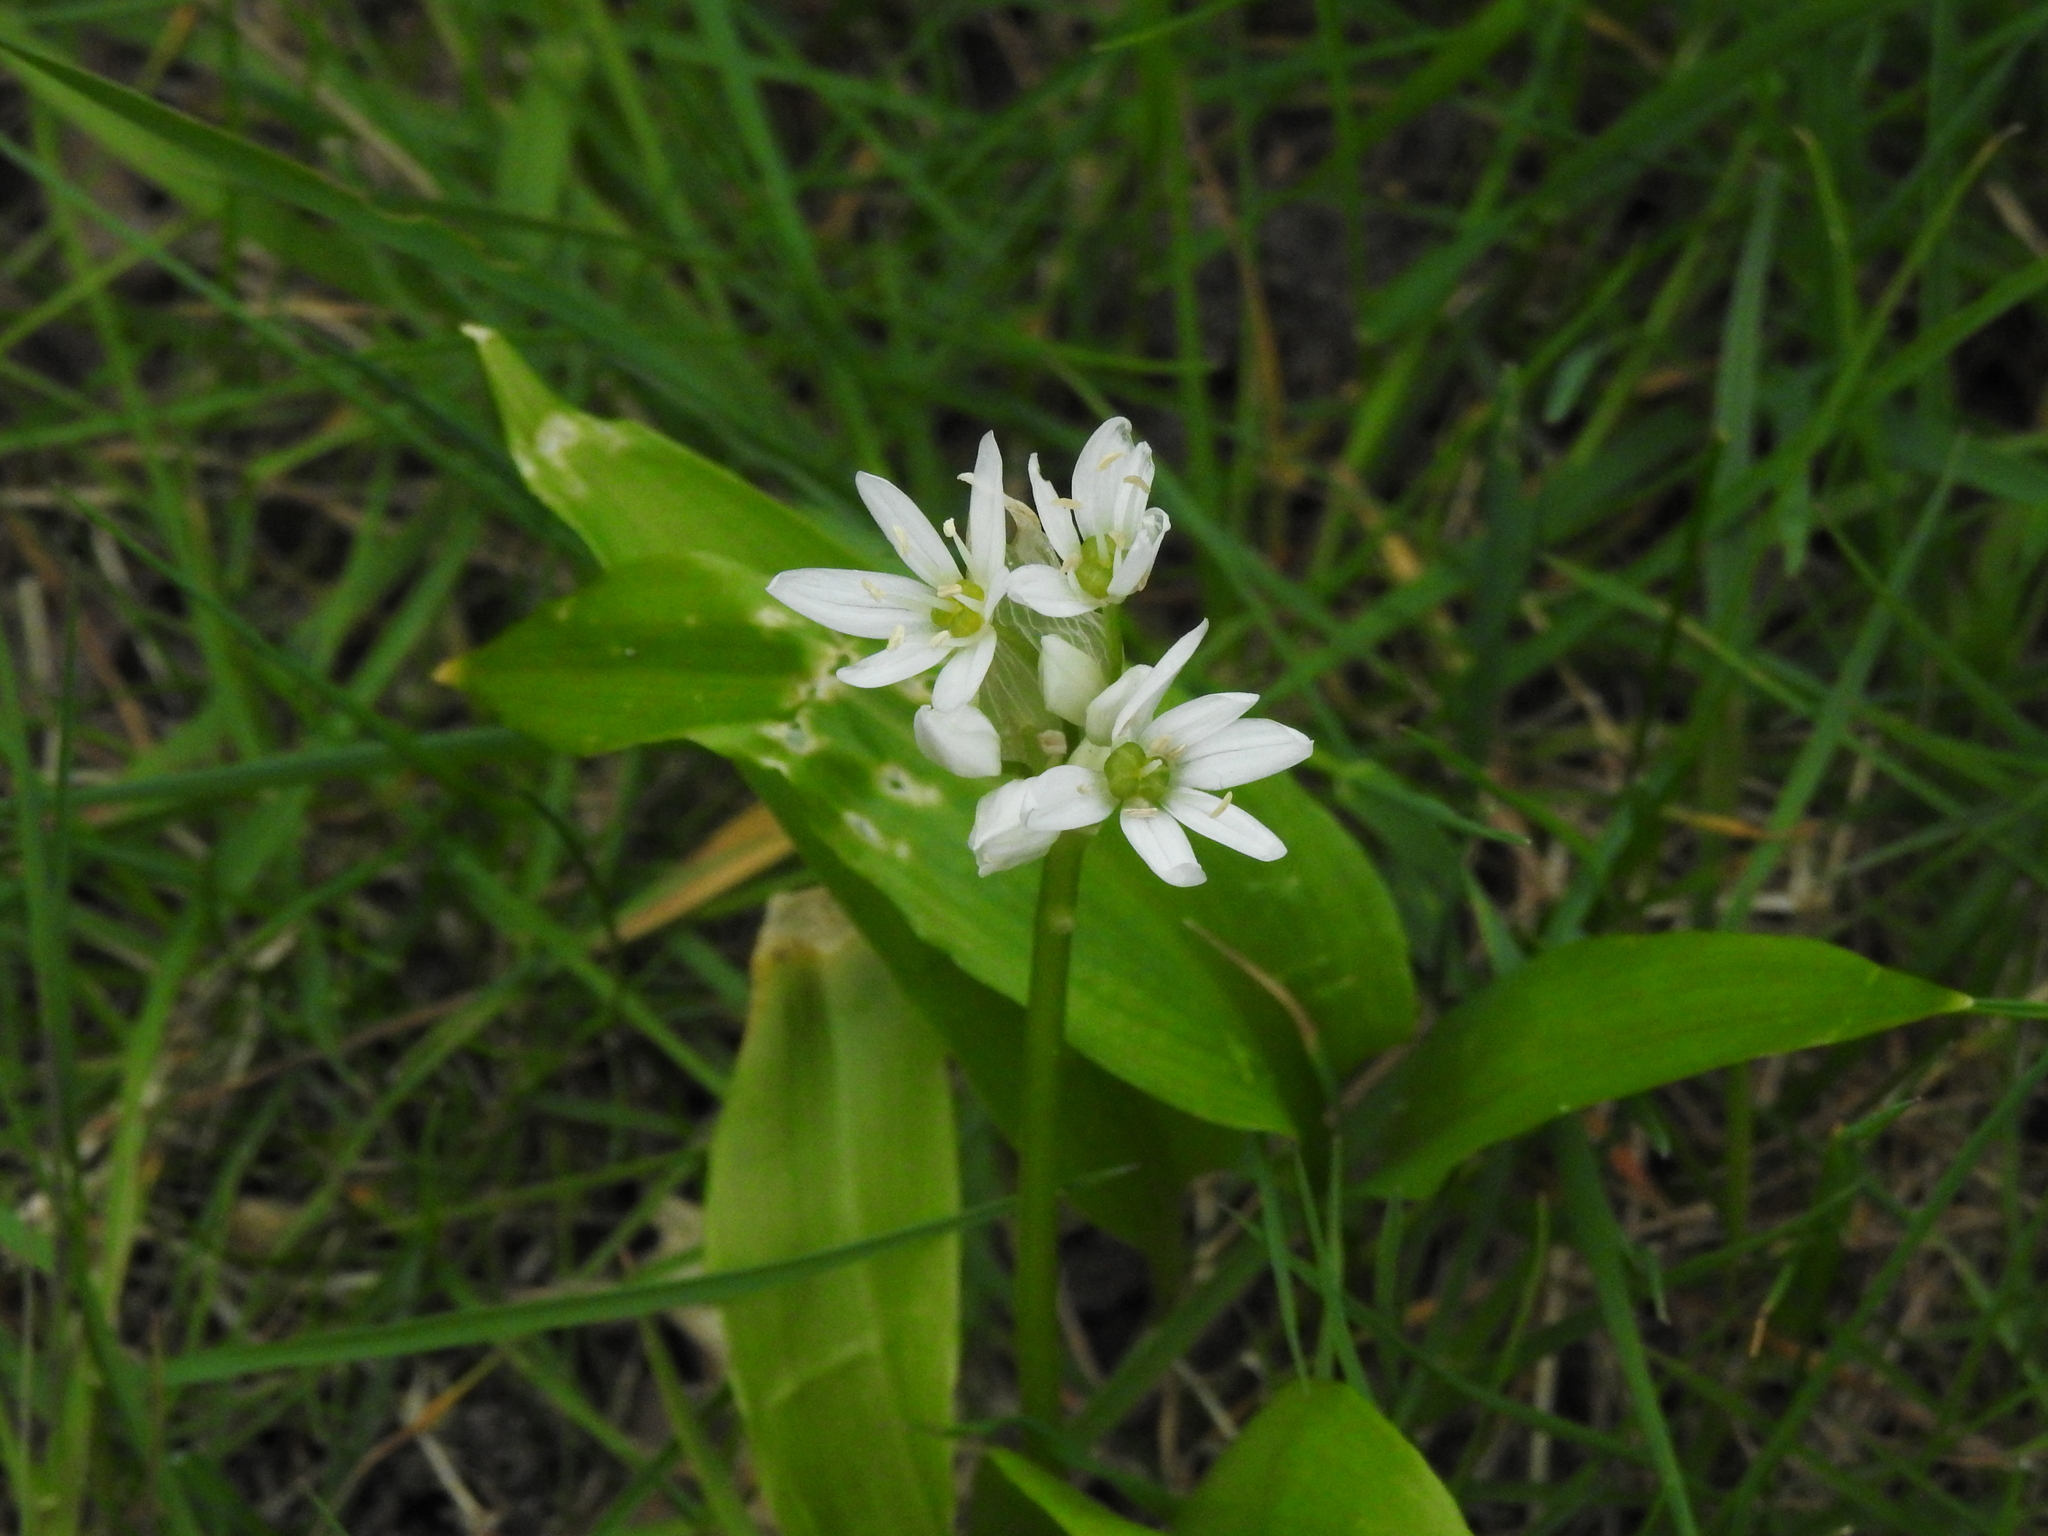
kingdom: Plantae
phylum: Tracheophyta
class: Liliopsida
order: Asparagales
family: Amaryllidaceae
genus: Allium
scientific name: Allium ursinum
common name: Ramsons
